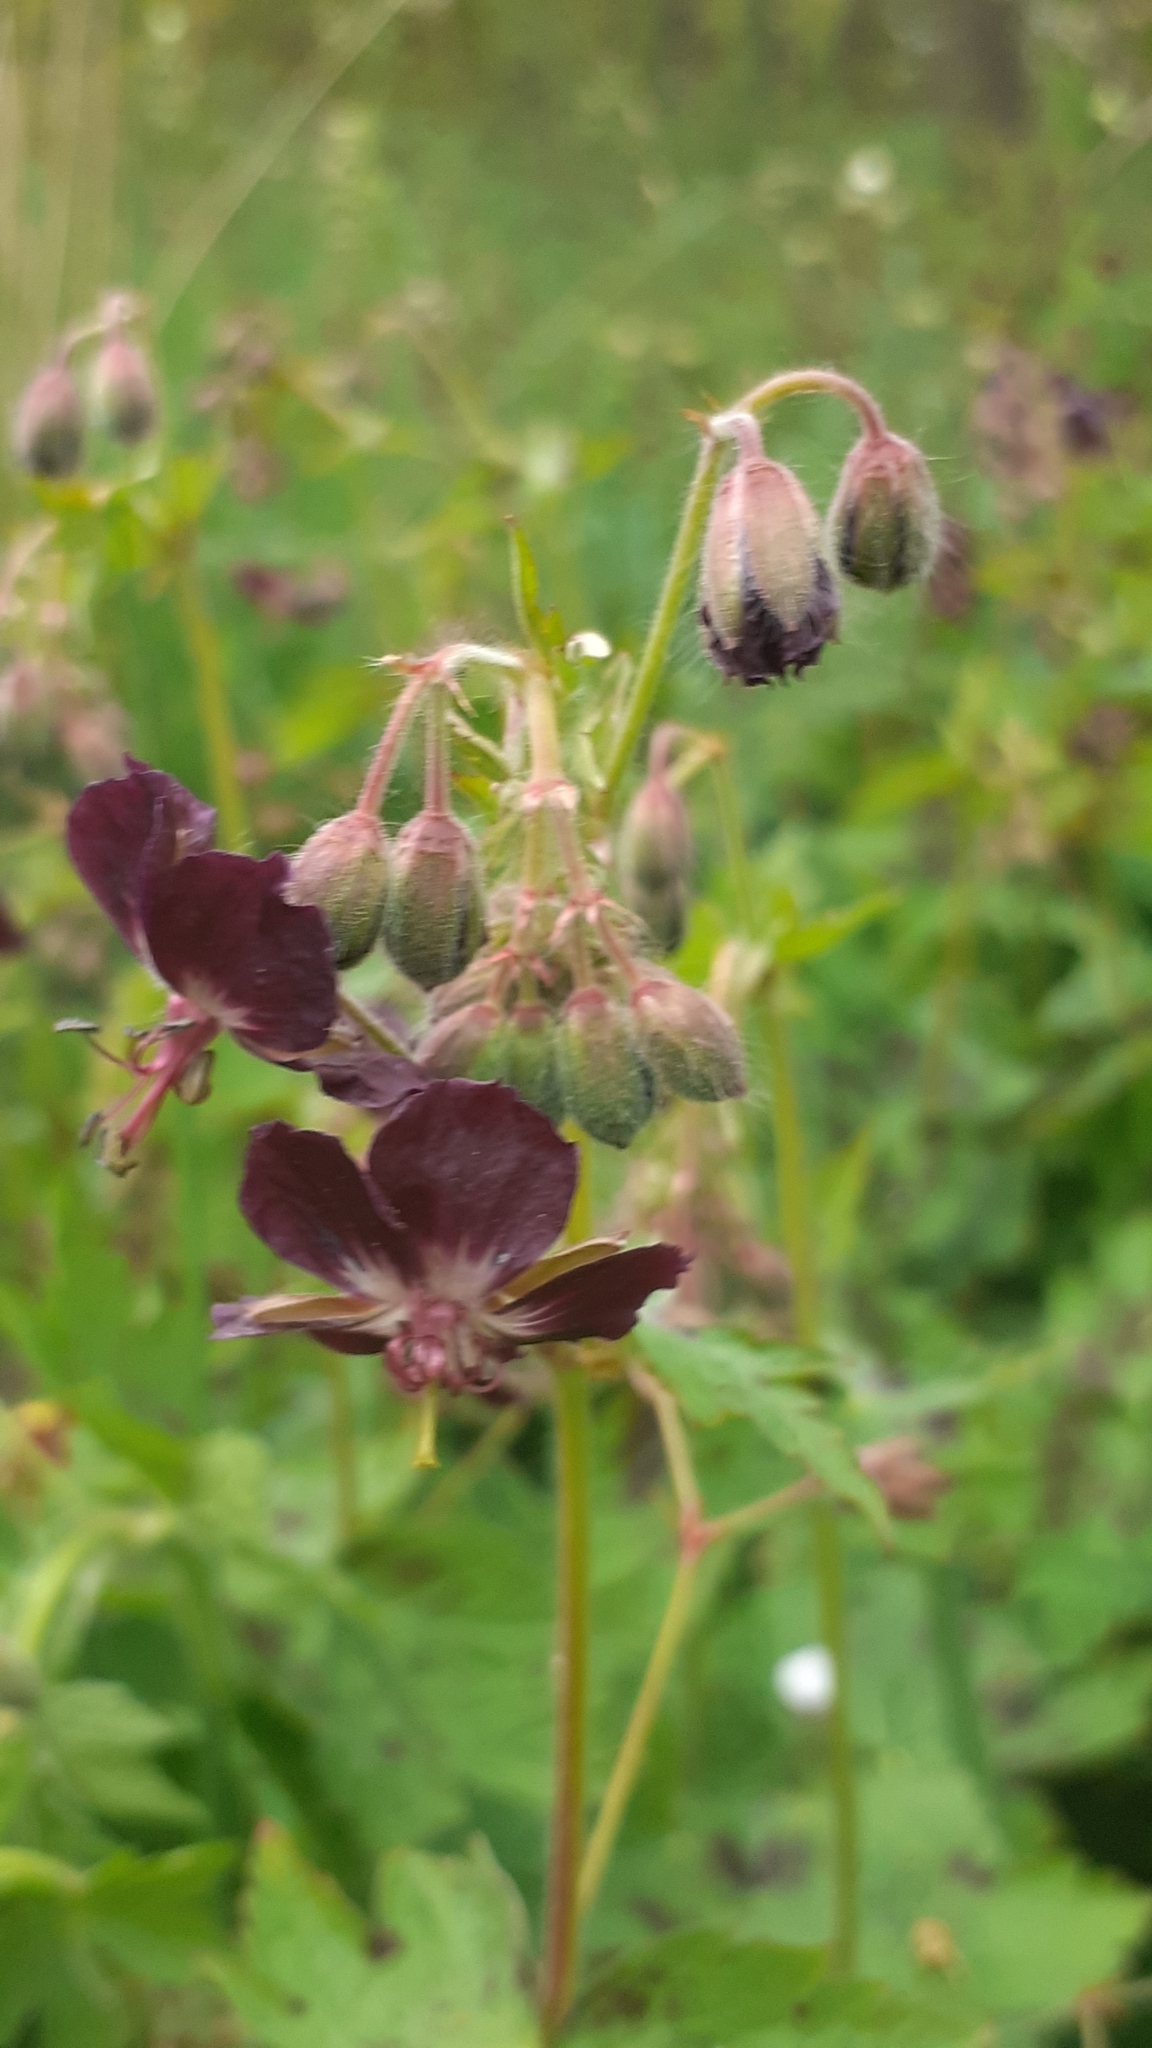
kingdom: Plantae
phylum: Tracheophyta
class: Magnoliopsida
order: Geraniales
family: Geraniaceae
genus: Geranium
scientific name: Geranium phaeum
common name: Dusky crane's-bill
